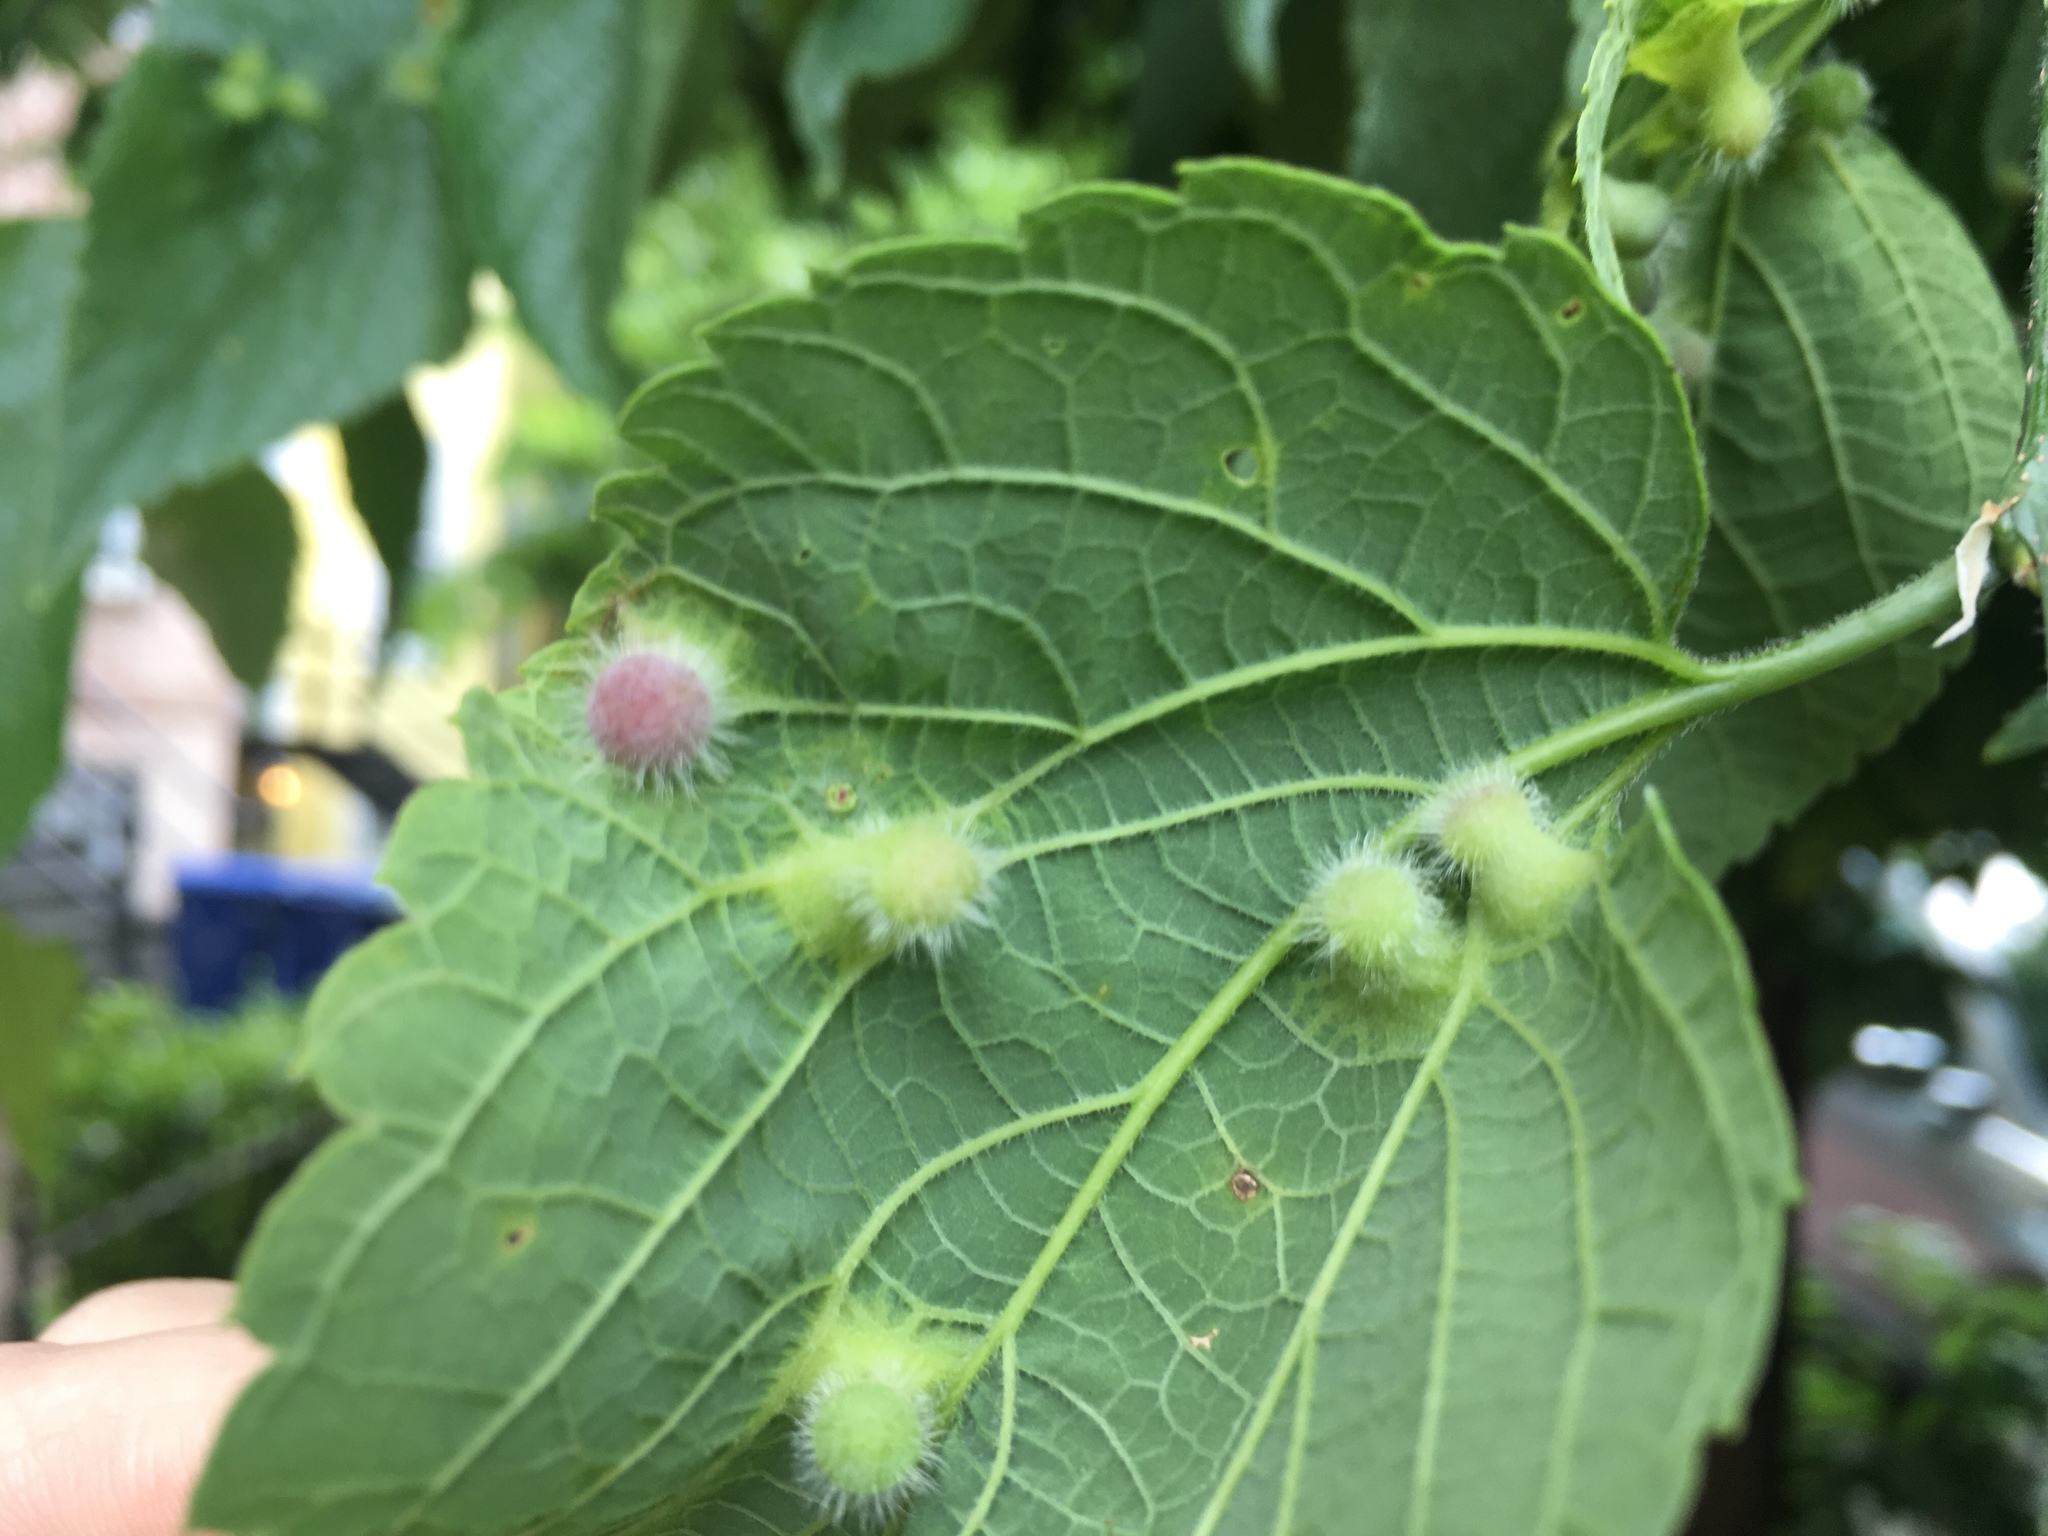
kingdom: Animalia
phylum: Arthropoda
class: Insecta
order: Hemiptera
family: Aphalaridae
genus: Pachypsylla
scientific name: Pachypsylla celtidismamma
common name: Hackberry nipplegall psyllid
